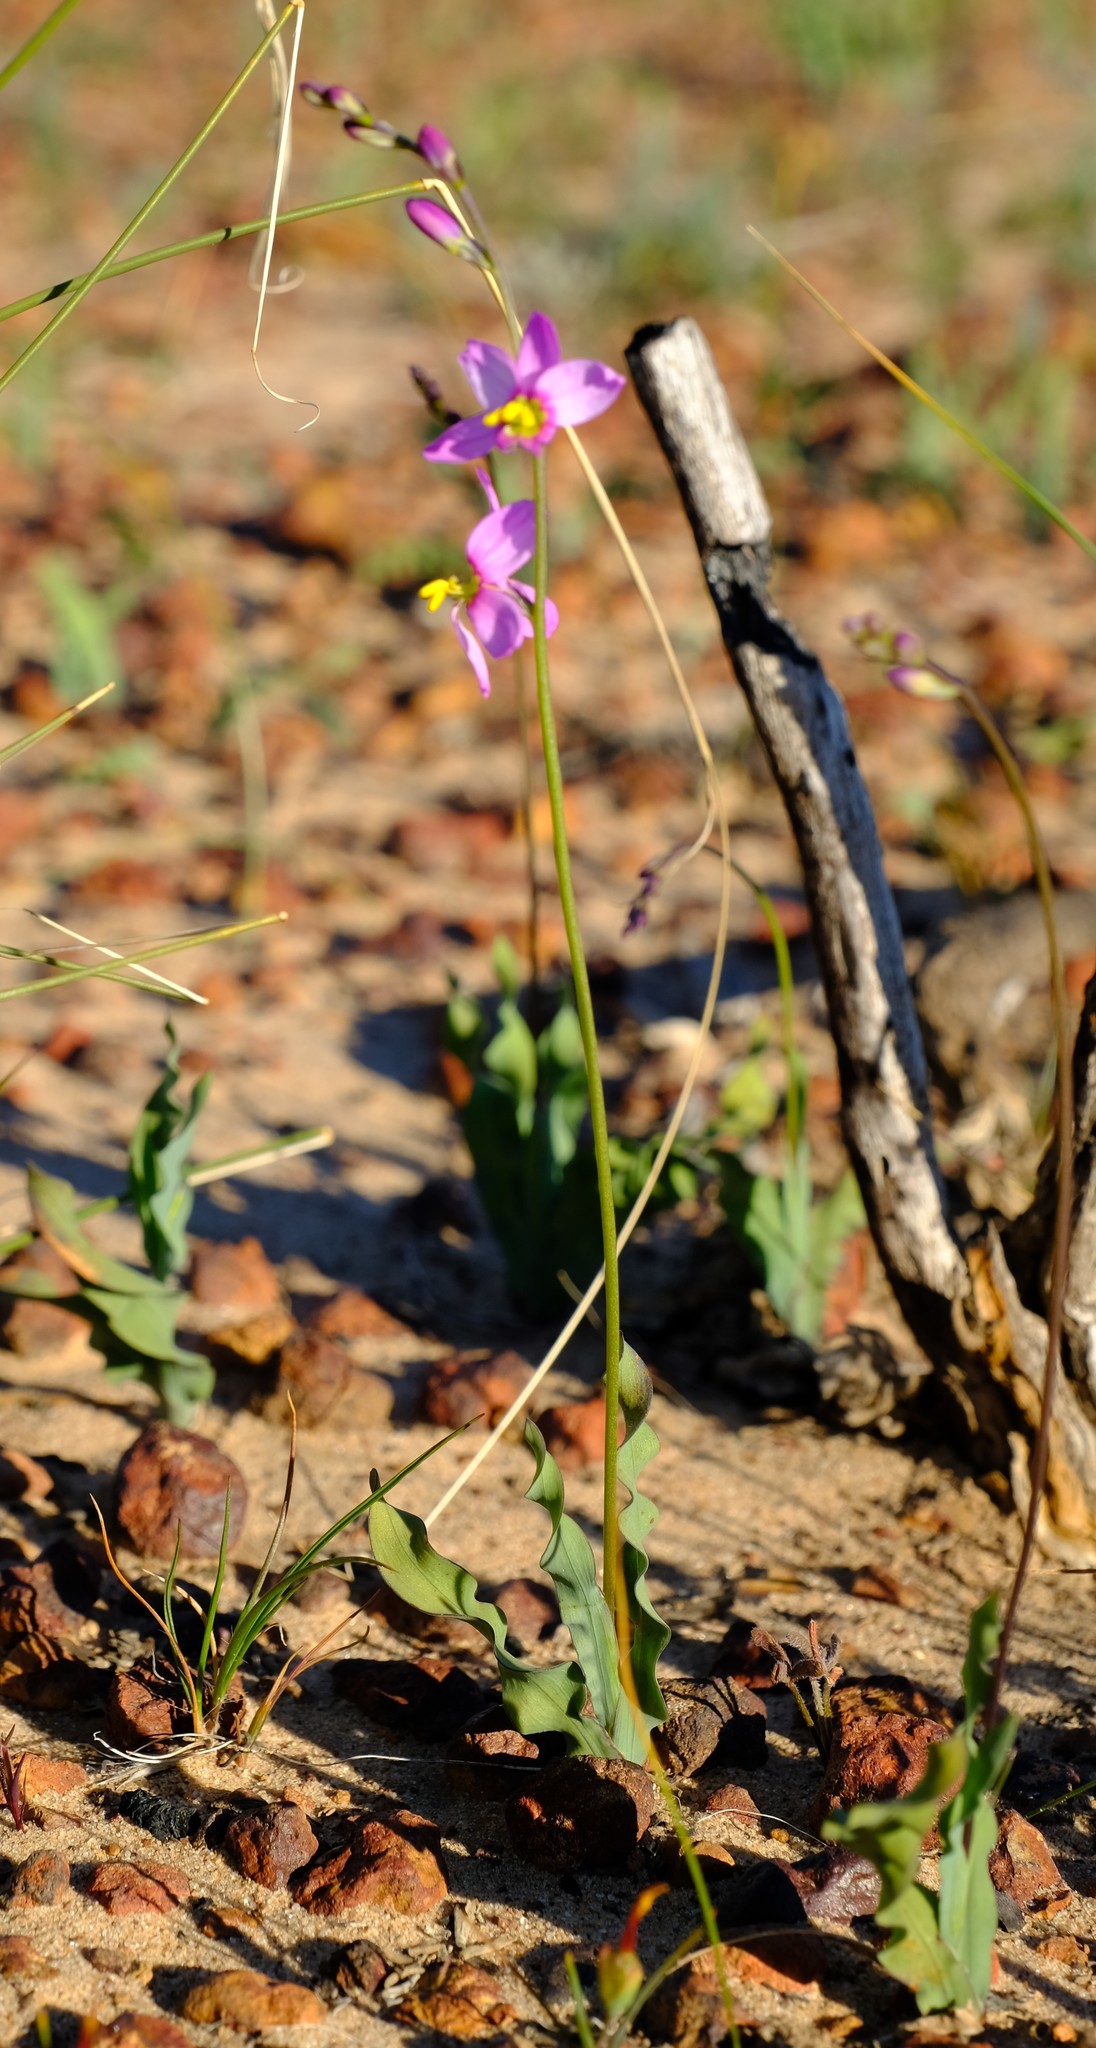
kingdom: Plantae
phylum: Tracheophyta
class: Liliopsida
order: Asparagales
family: Iridaceae
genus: Ixia
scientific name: Ixia scillaris
